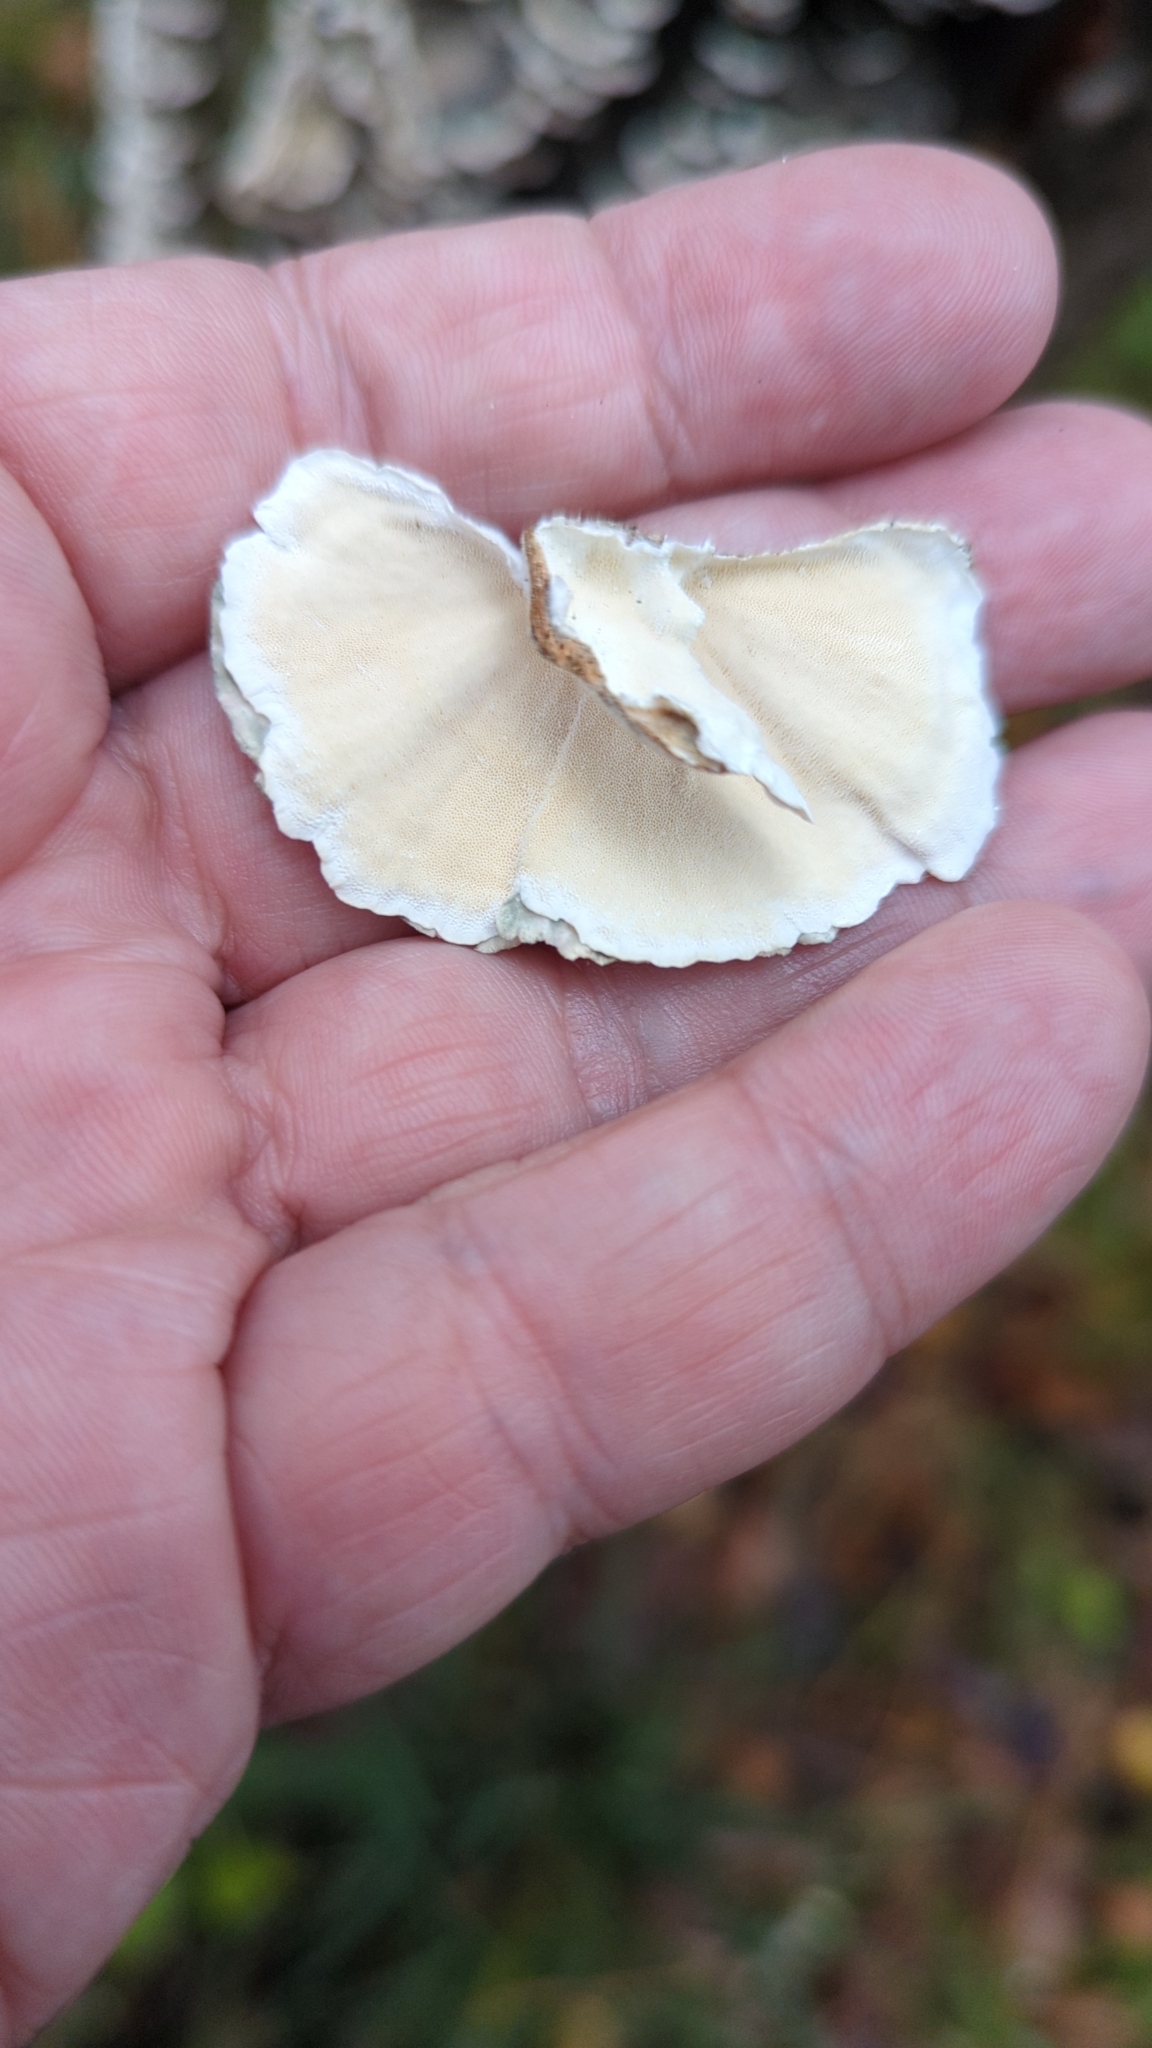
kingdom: Fungi
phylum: Basidiomycota
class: Agaricomycetes
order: Polyporales
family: Polyporaceae
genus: Trametes
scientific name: Trametes versicolor
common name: Turkeytail
